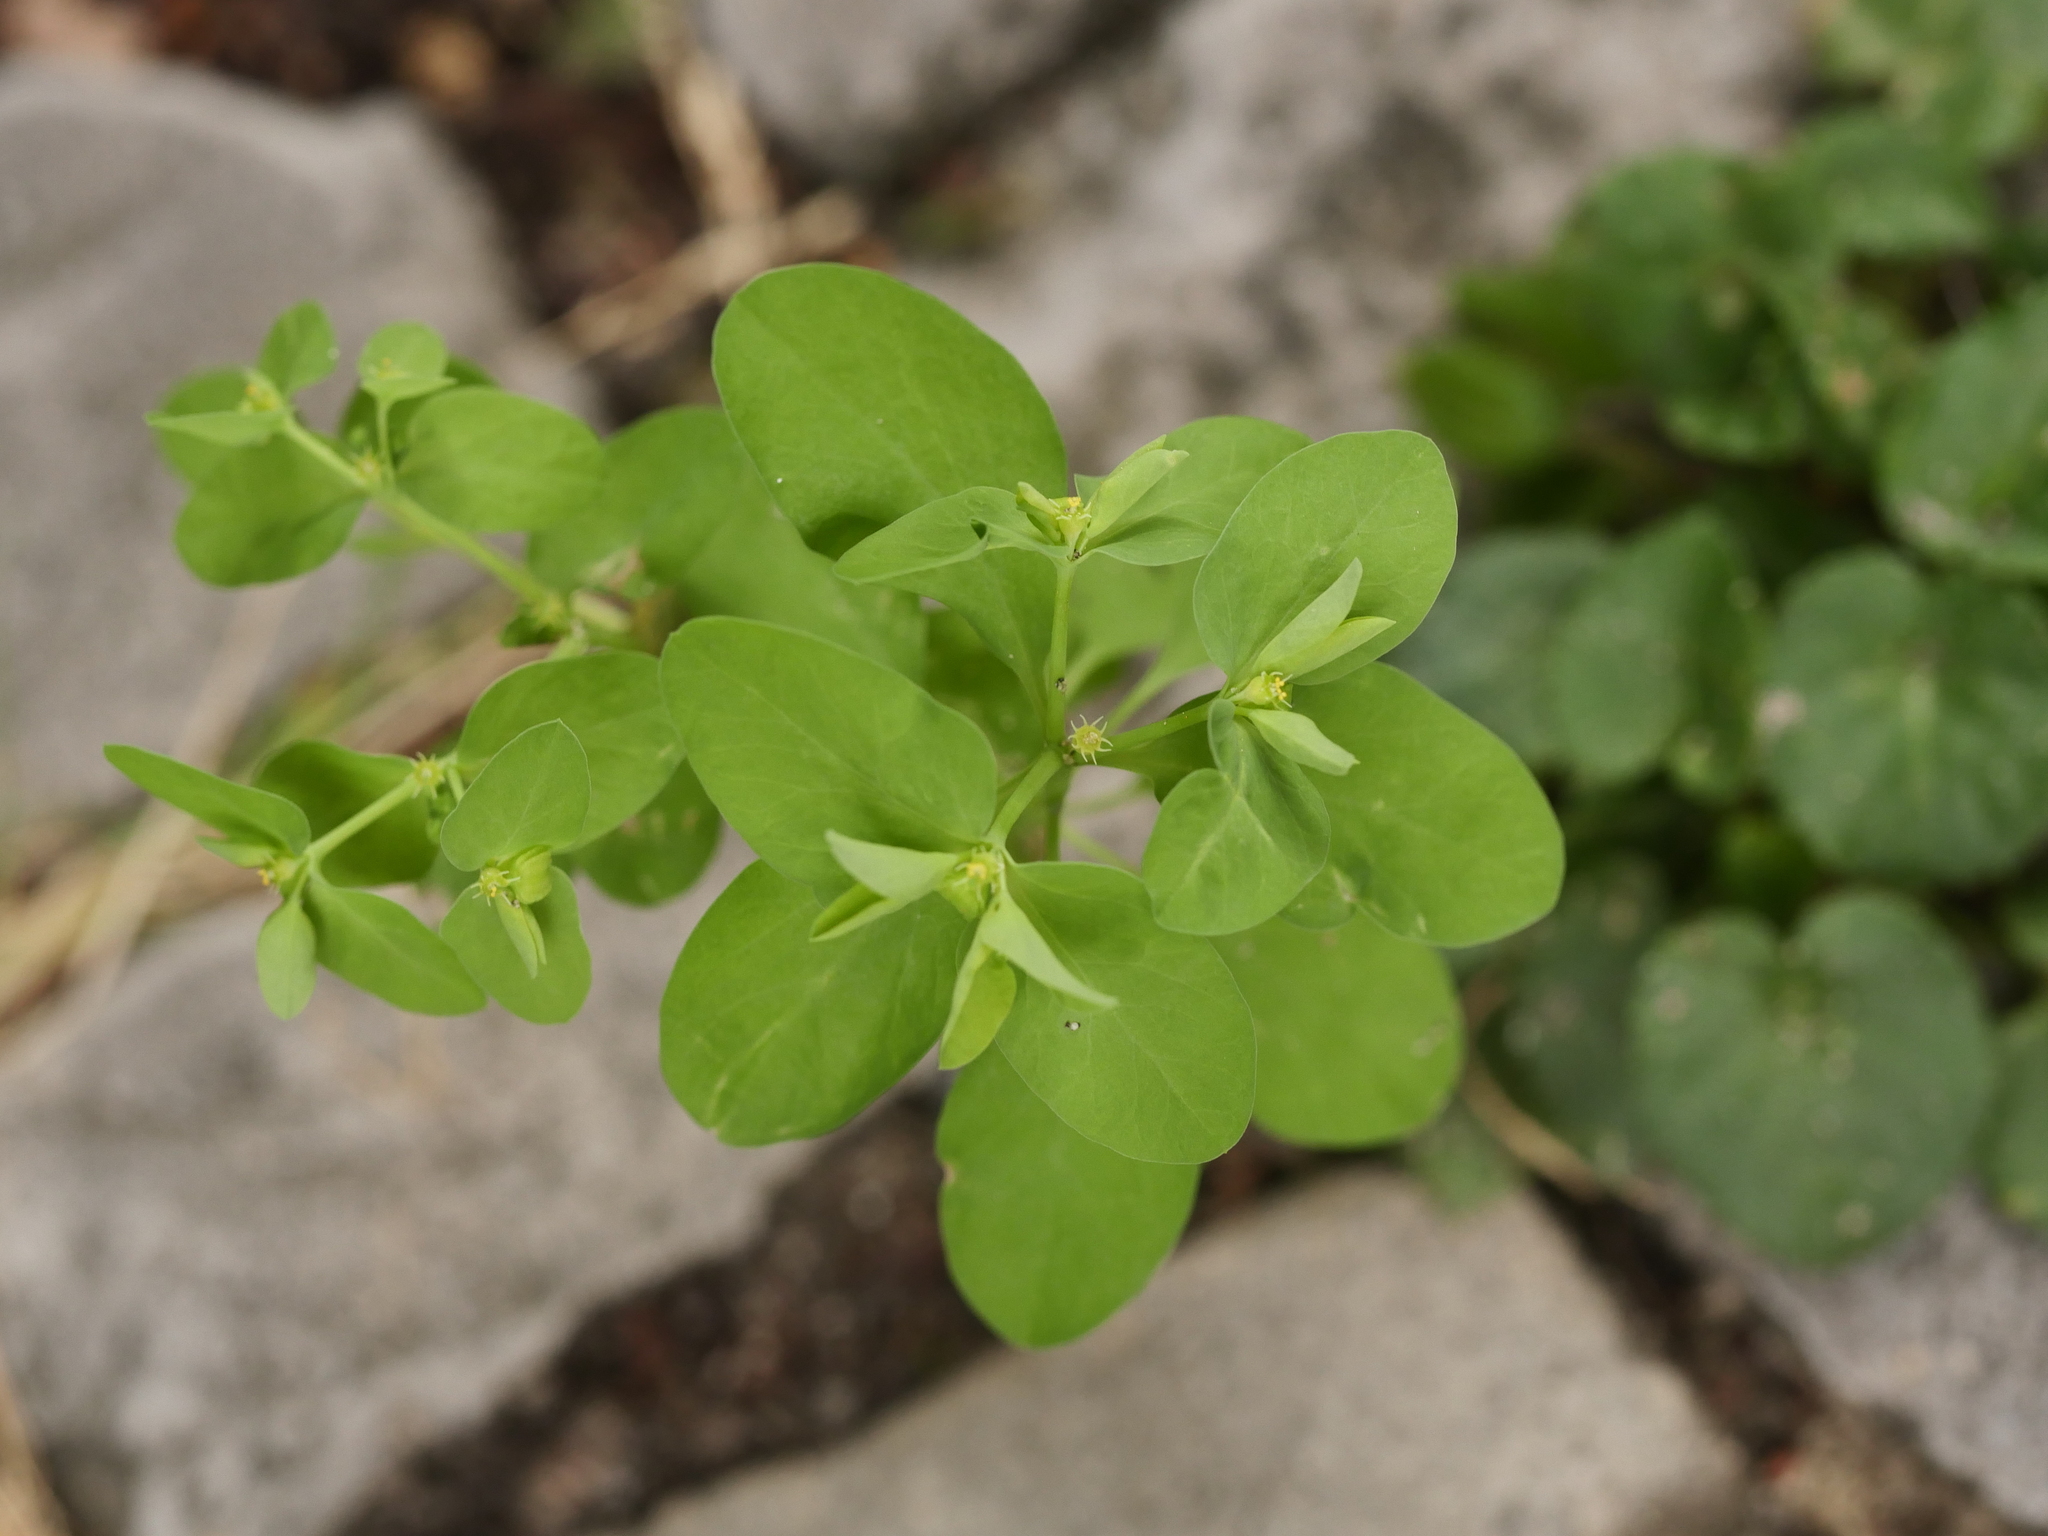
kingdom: Plantae
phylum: Tracheophyta
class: Magnoliopsida
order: Malpighiales
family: Euphorbiaceae
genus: Euphorbia
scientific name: Euphorbia peplus
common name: Petty spurge
